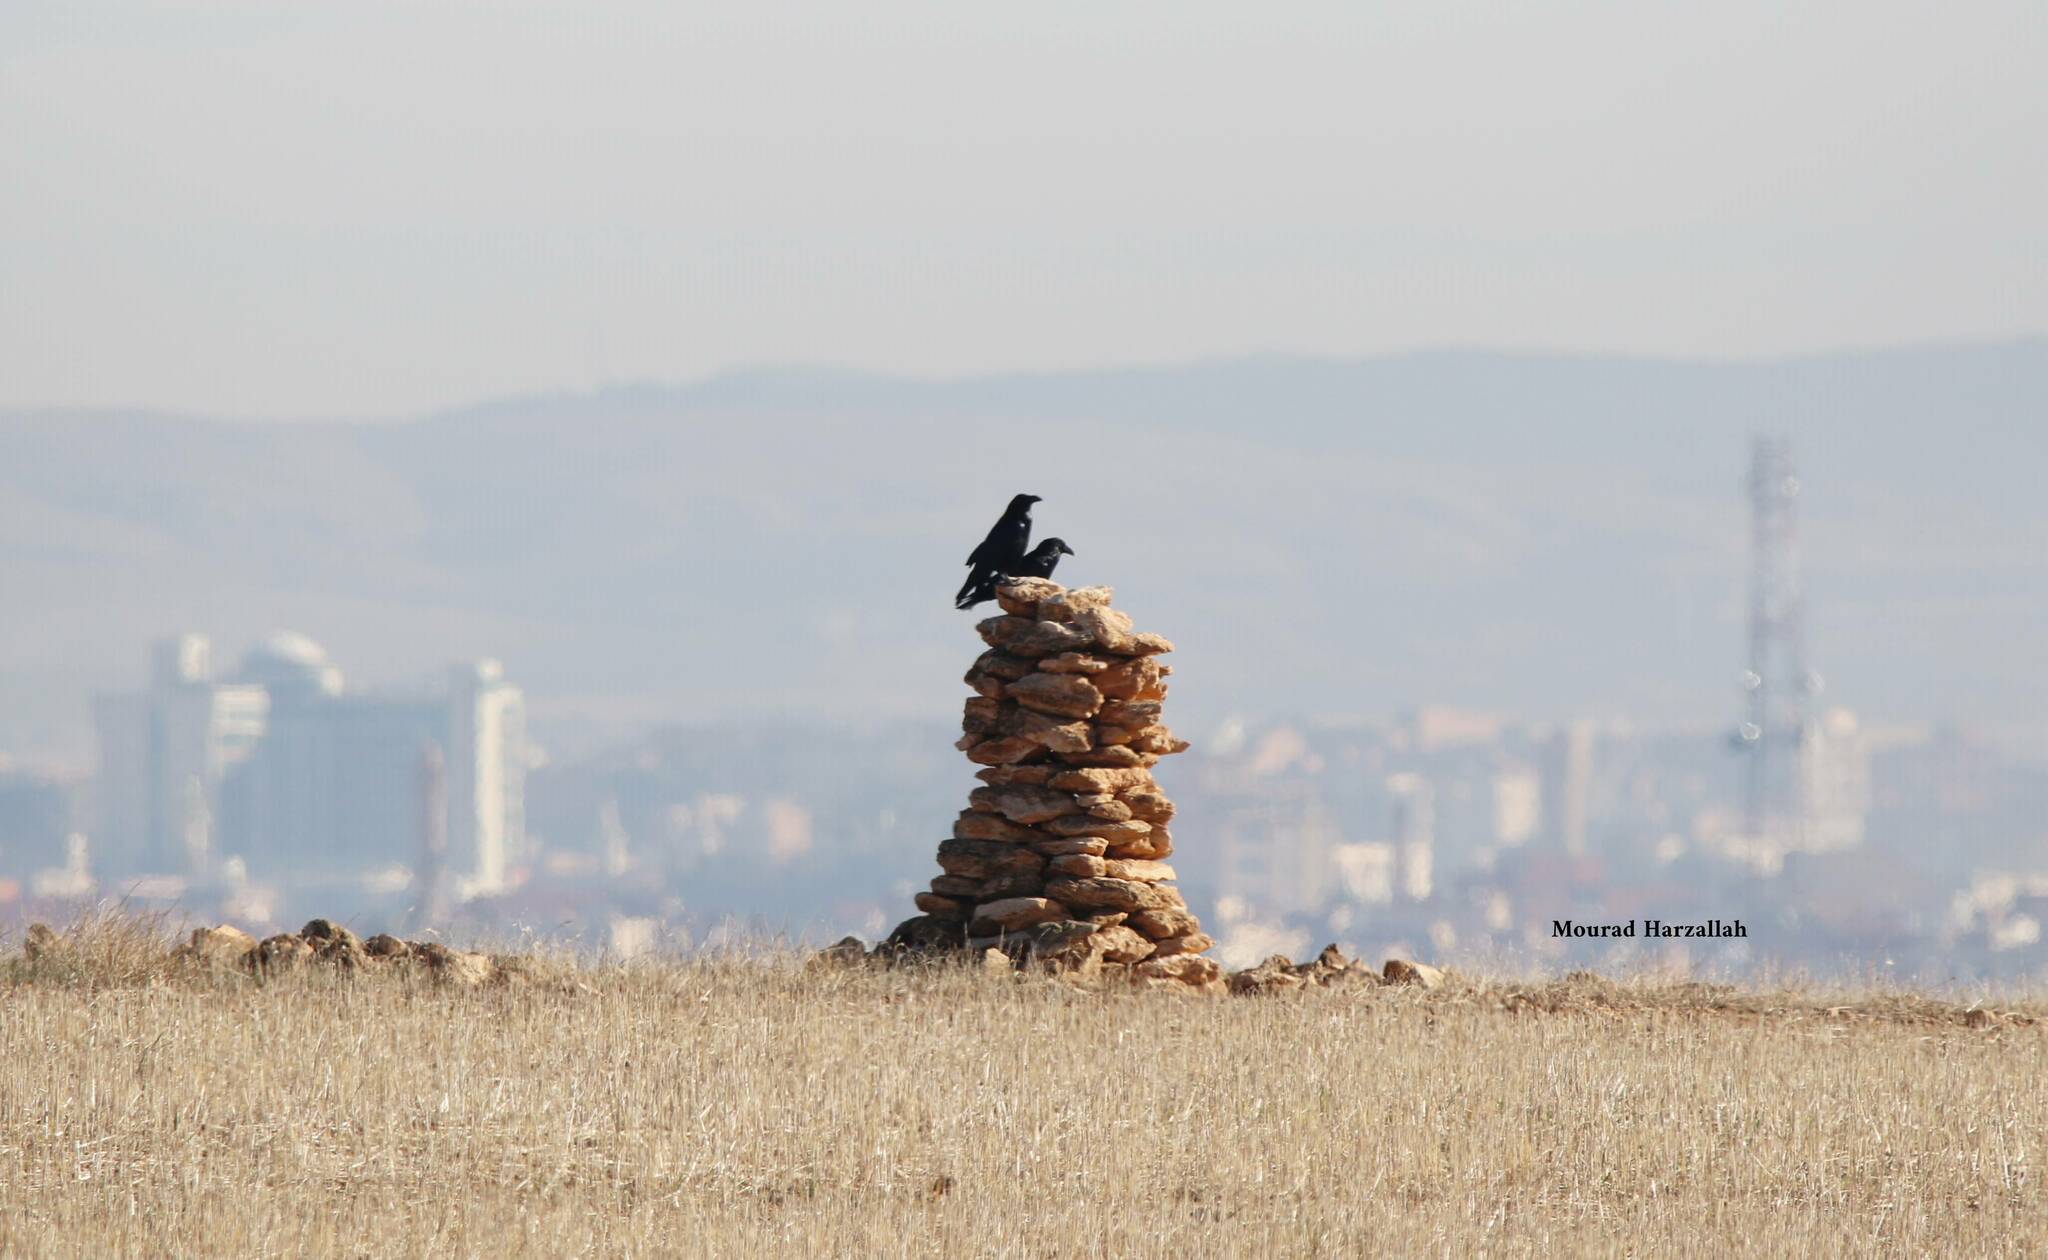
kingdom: Animalia
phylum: Chordata
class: Aves
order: Passeriformes
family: Corvidae
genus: Corvus
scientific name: Corvus corax
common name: Common raven
